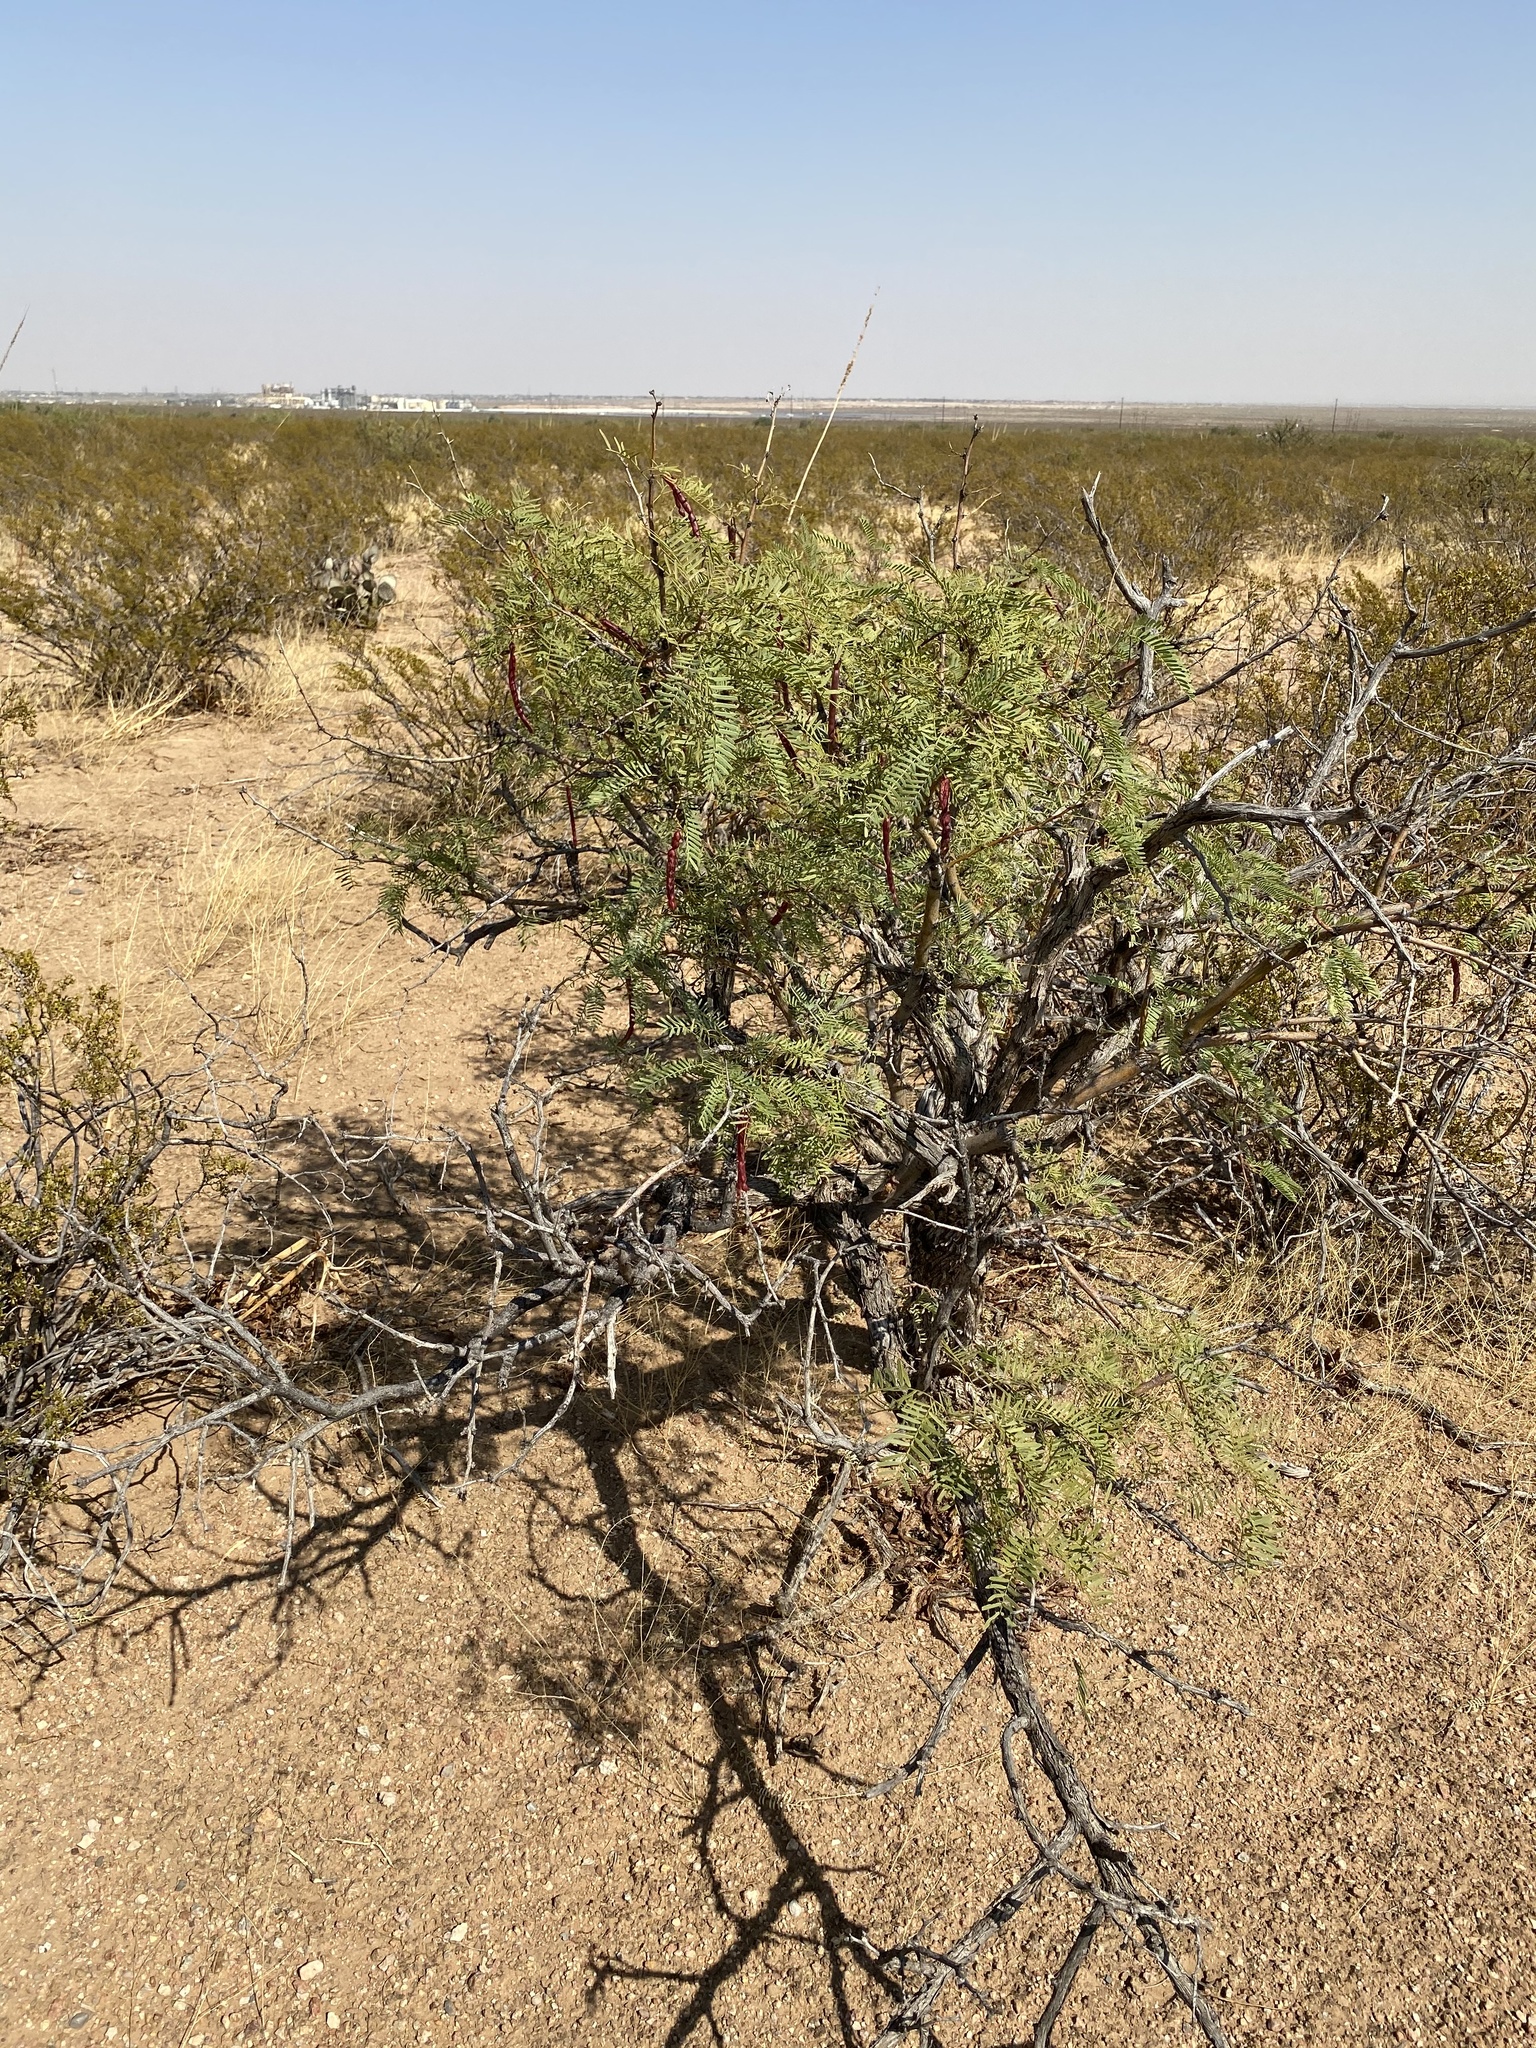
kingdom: Plantae
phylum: Tracheophyta
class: Magnoliopsida
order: Fabales
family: Fabaceae
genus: Prosopis
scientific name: Prosopis glandulosa
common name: Honey mesquite
